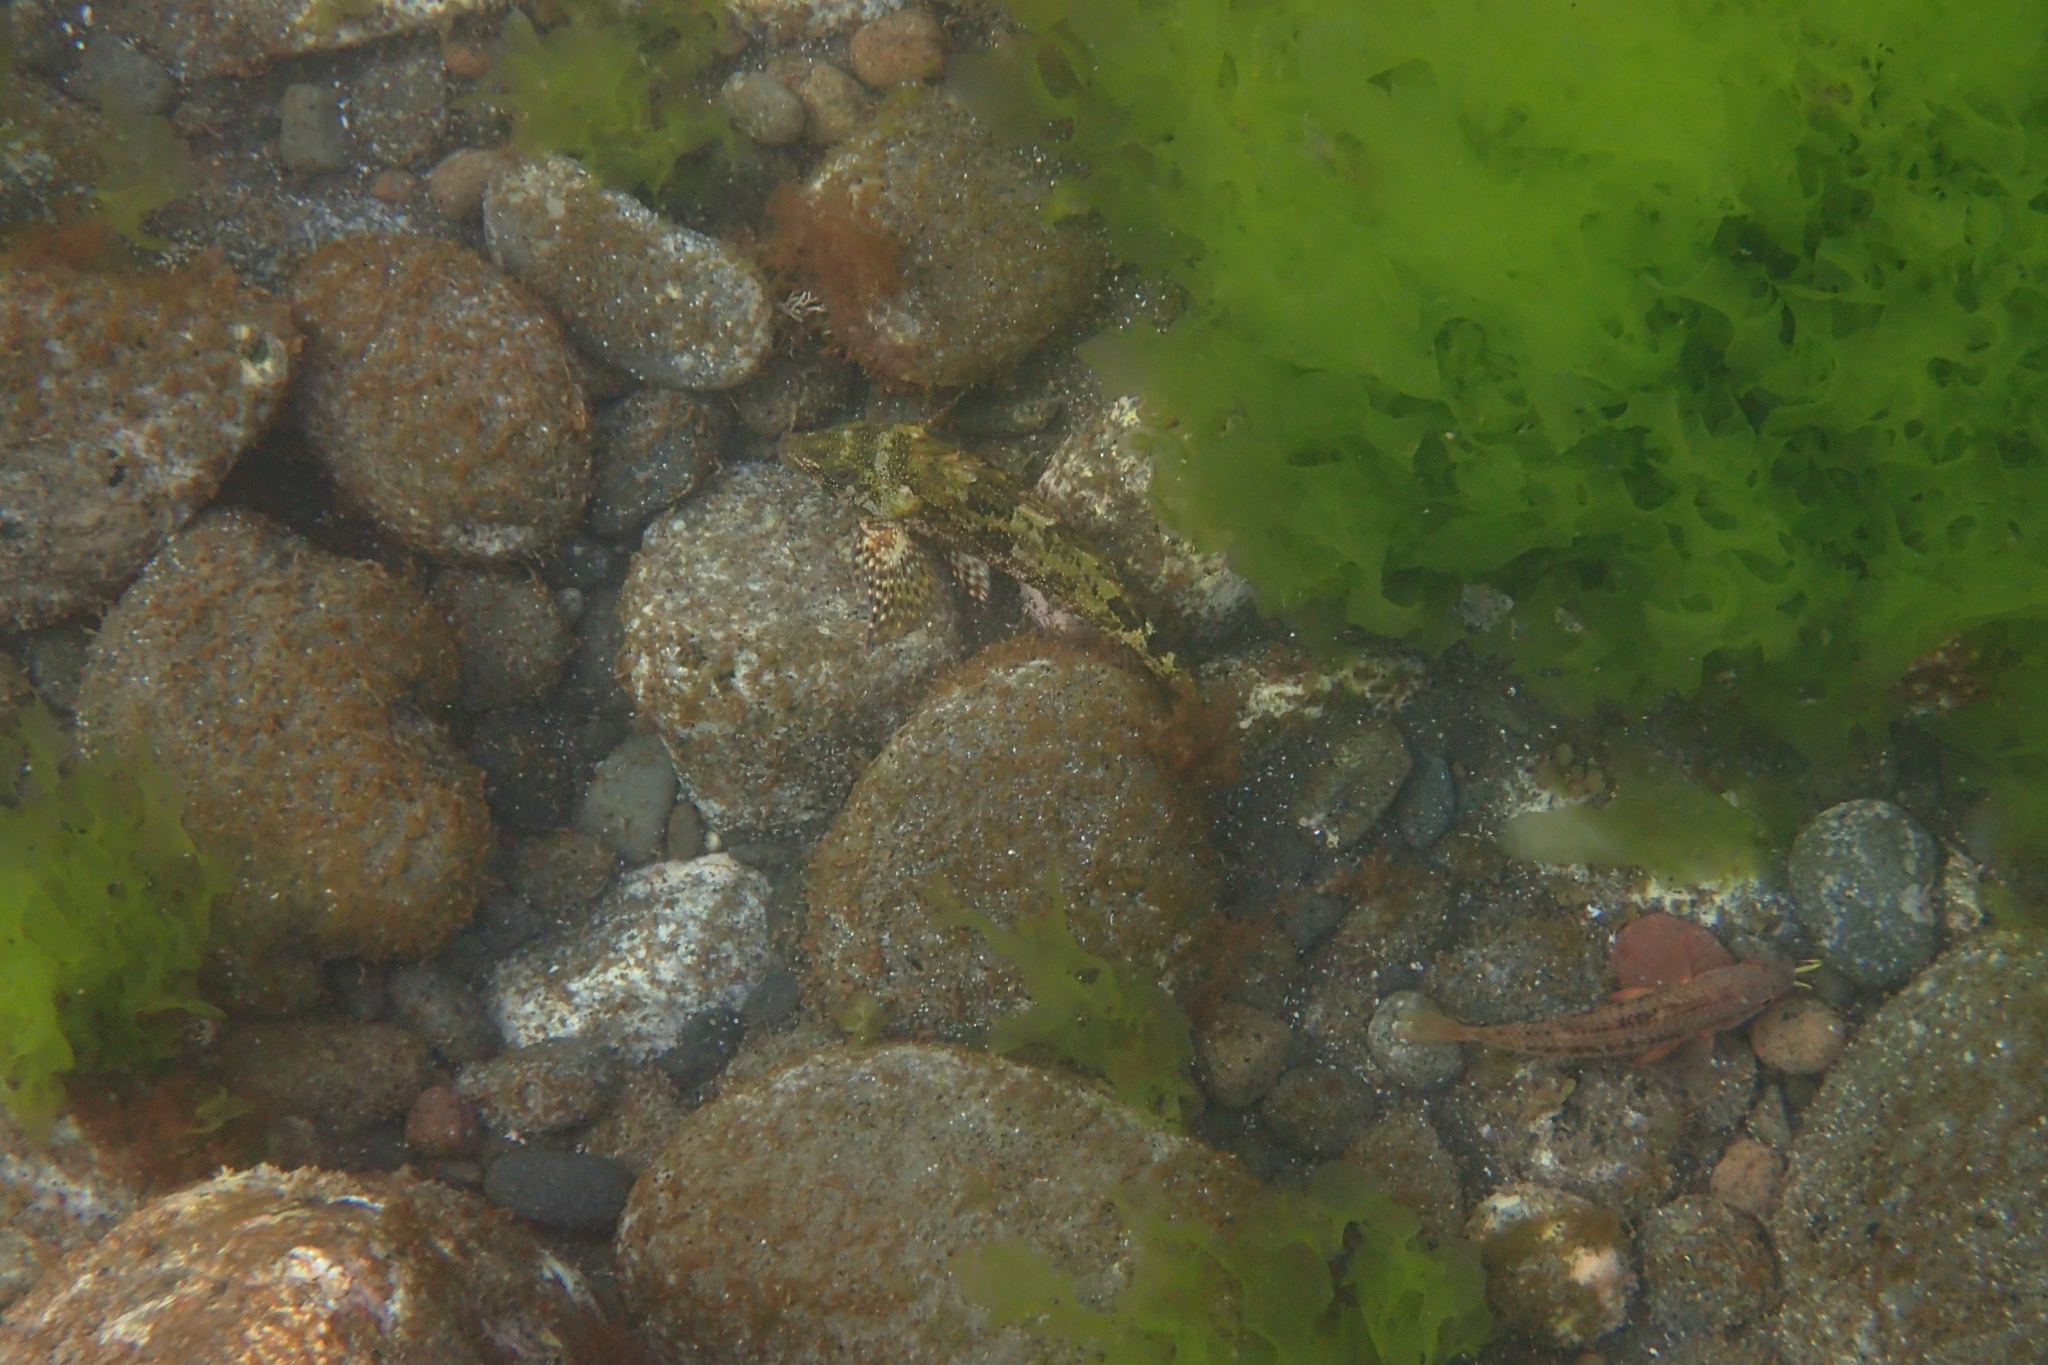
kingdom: Animalia
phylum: Chordata
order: Perciformes
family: Chironemidae
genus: Chironemus
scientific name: Chironemus marmoratus
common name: Kelpfish
